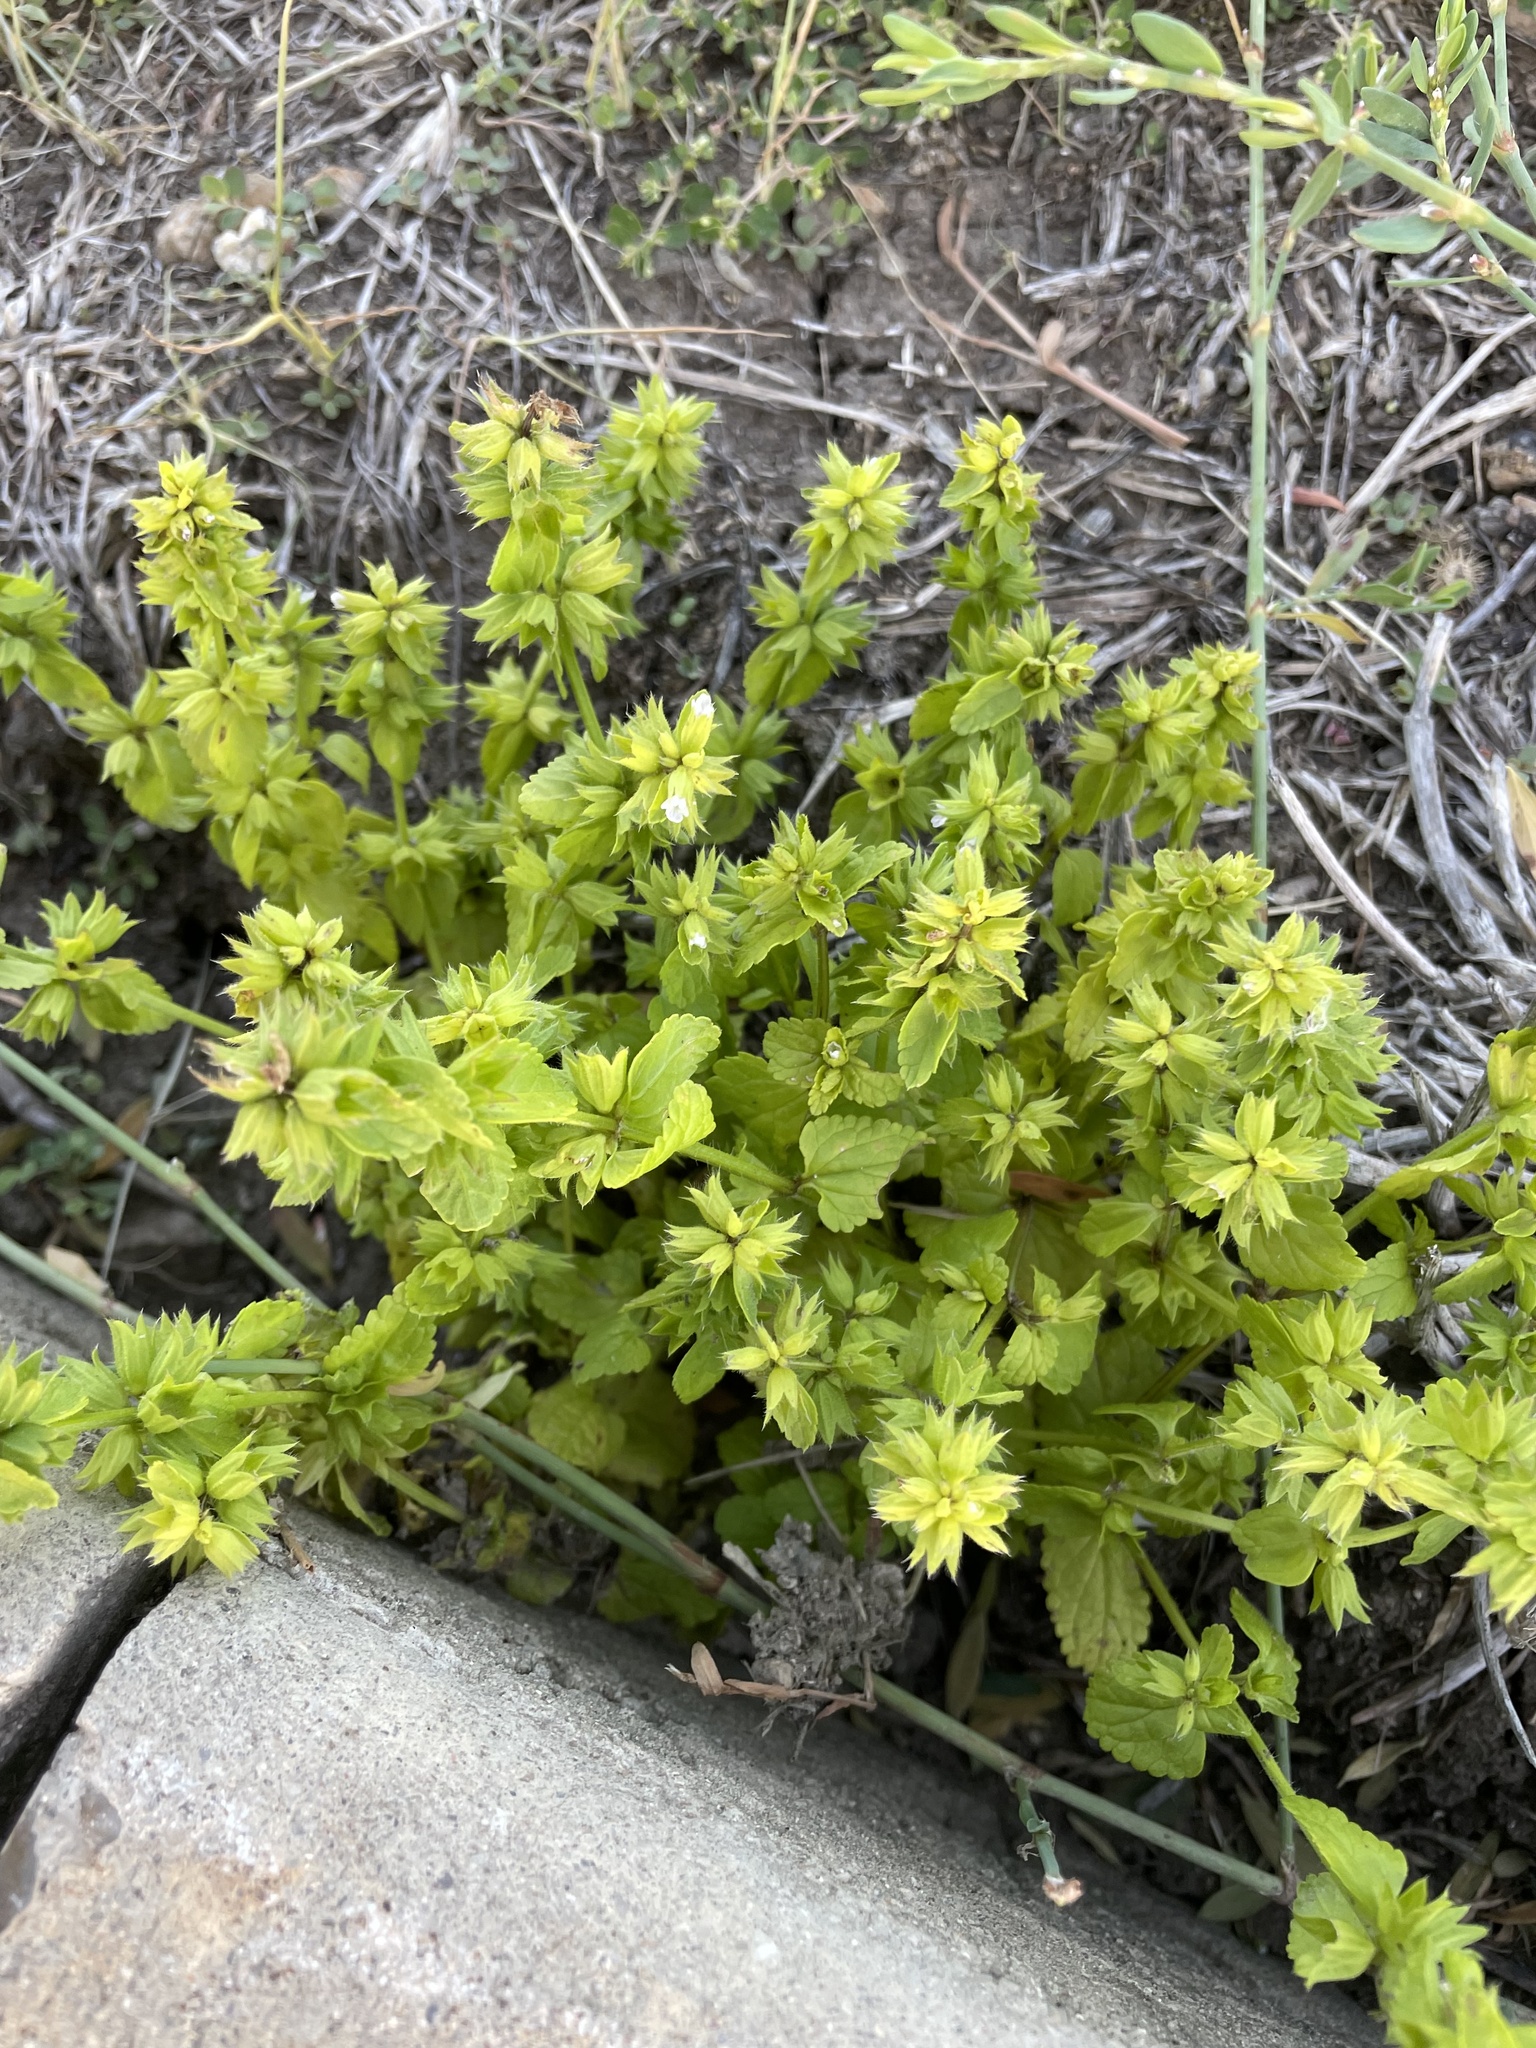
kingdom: Plantae
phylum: Tracheophyta
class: Magnoliopsida
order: Lamiales
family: Lamiaceae
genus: Stachys
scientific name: Stachys arvensis
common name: Field woundwort
